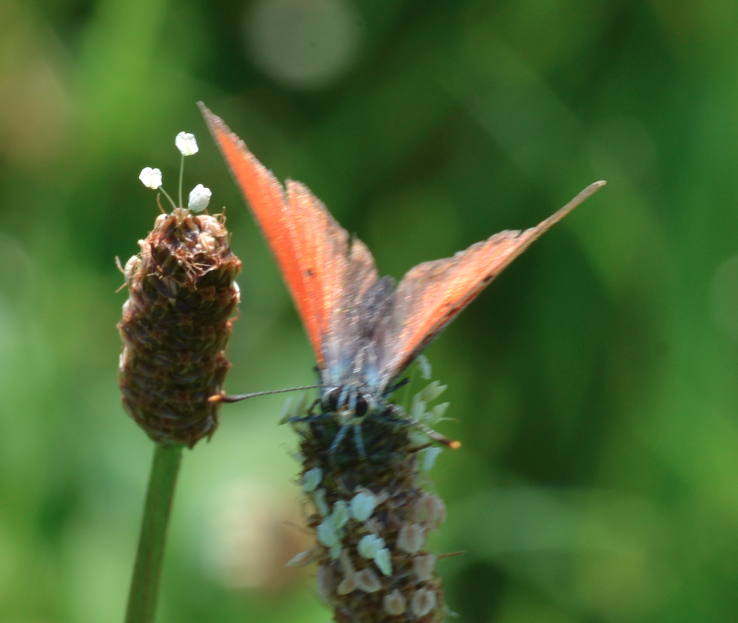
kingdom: Animalia
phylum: Arthropoda
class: Insecta
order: Lepidoptera
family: Lycaenidae
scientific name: Lycaenidae
